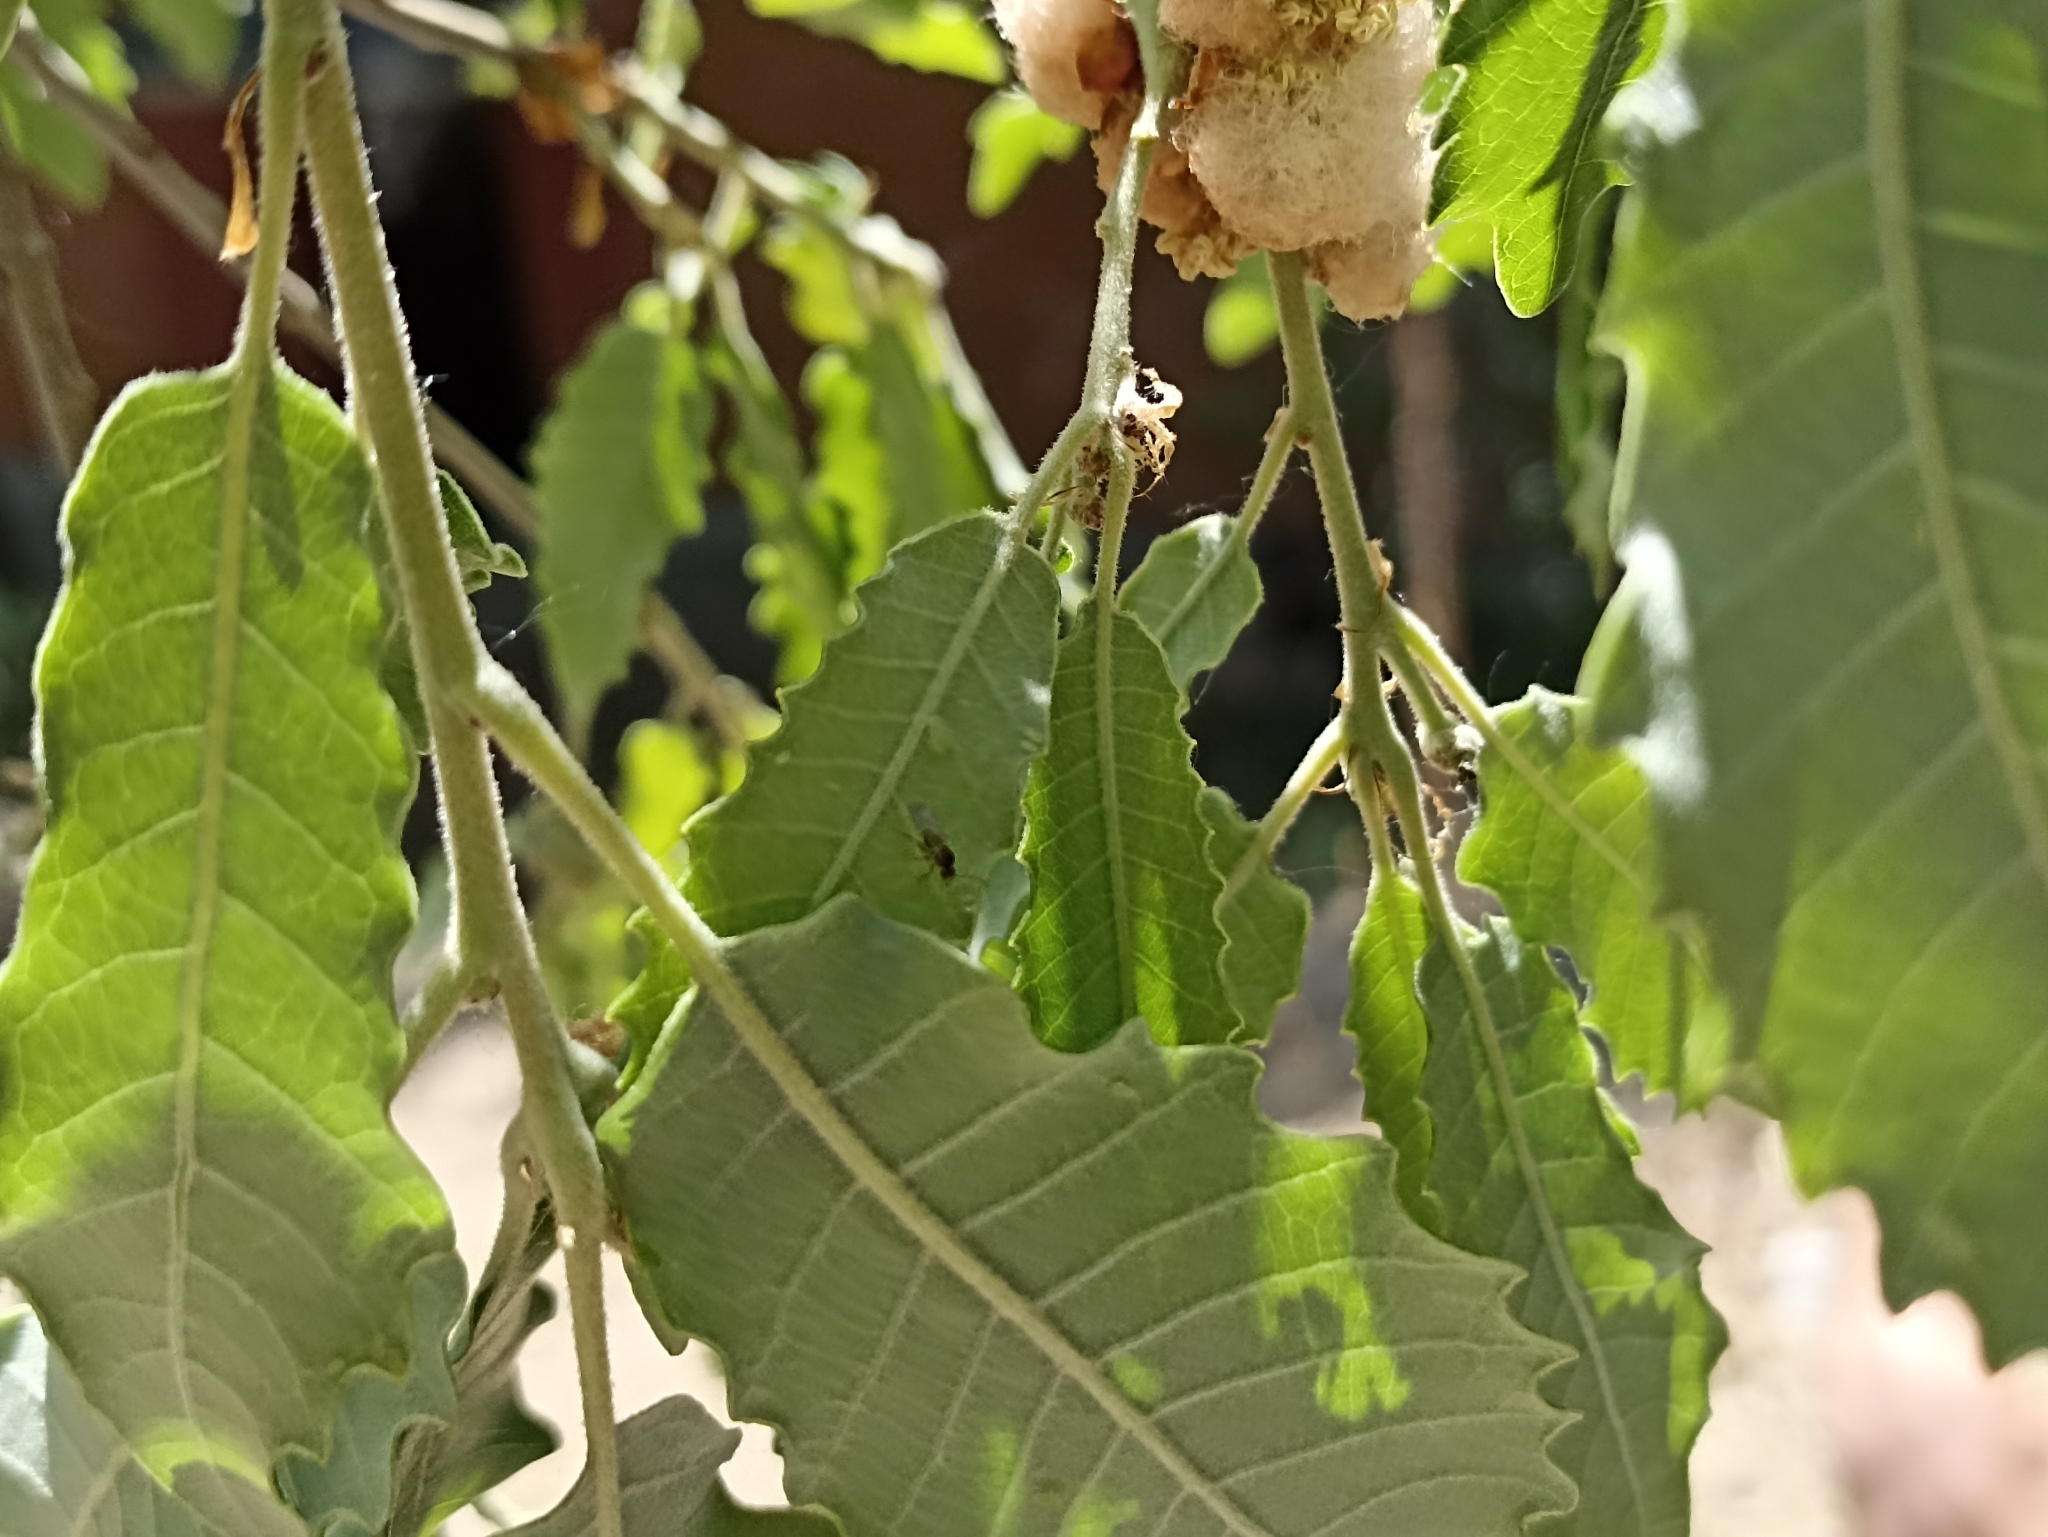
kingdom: Animalia
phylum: Arthropoda
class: Insecta
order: Hymenoptera
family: Cynipidae
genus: Andricus
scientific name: Andricus quercusramuli
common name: Cottonwool gall
